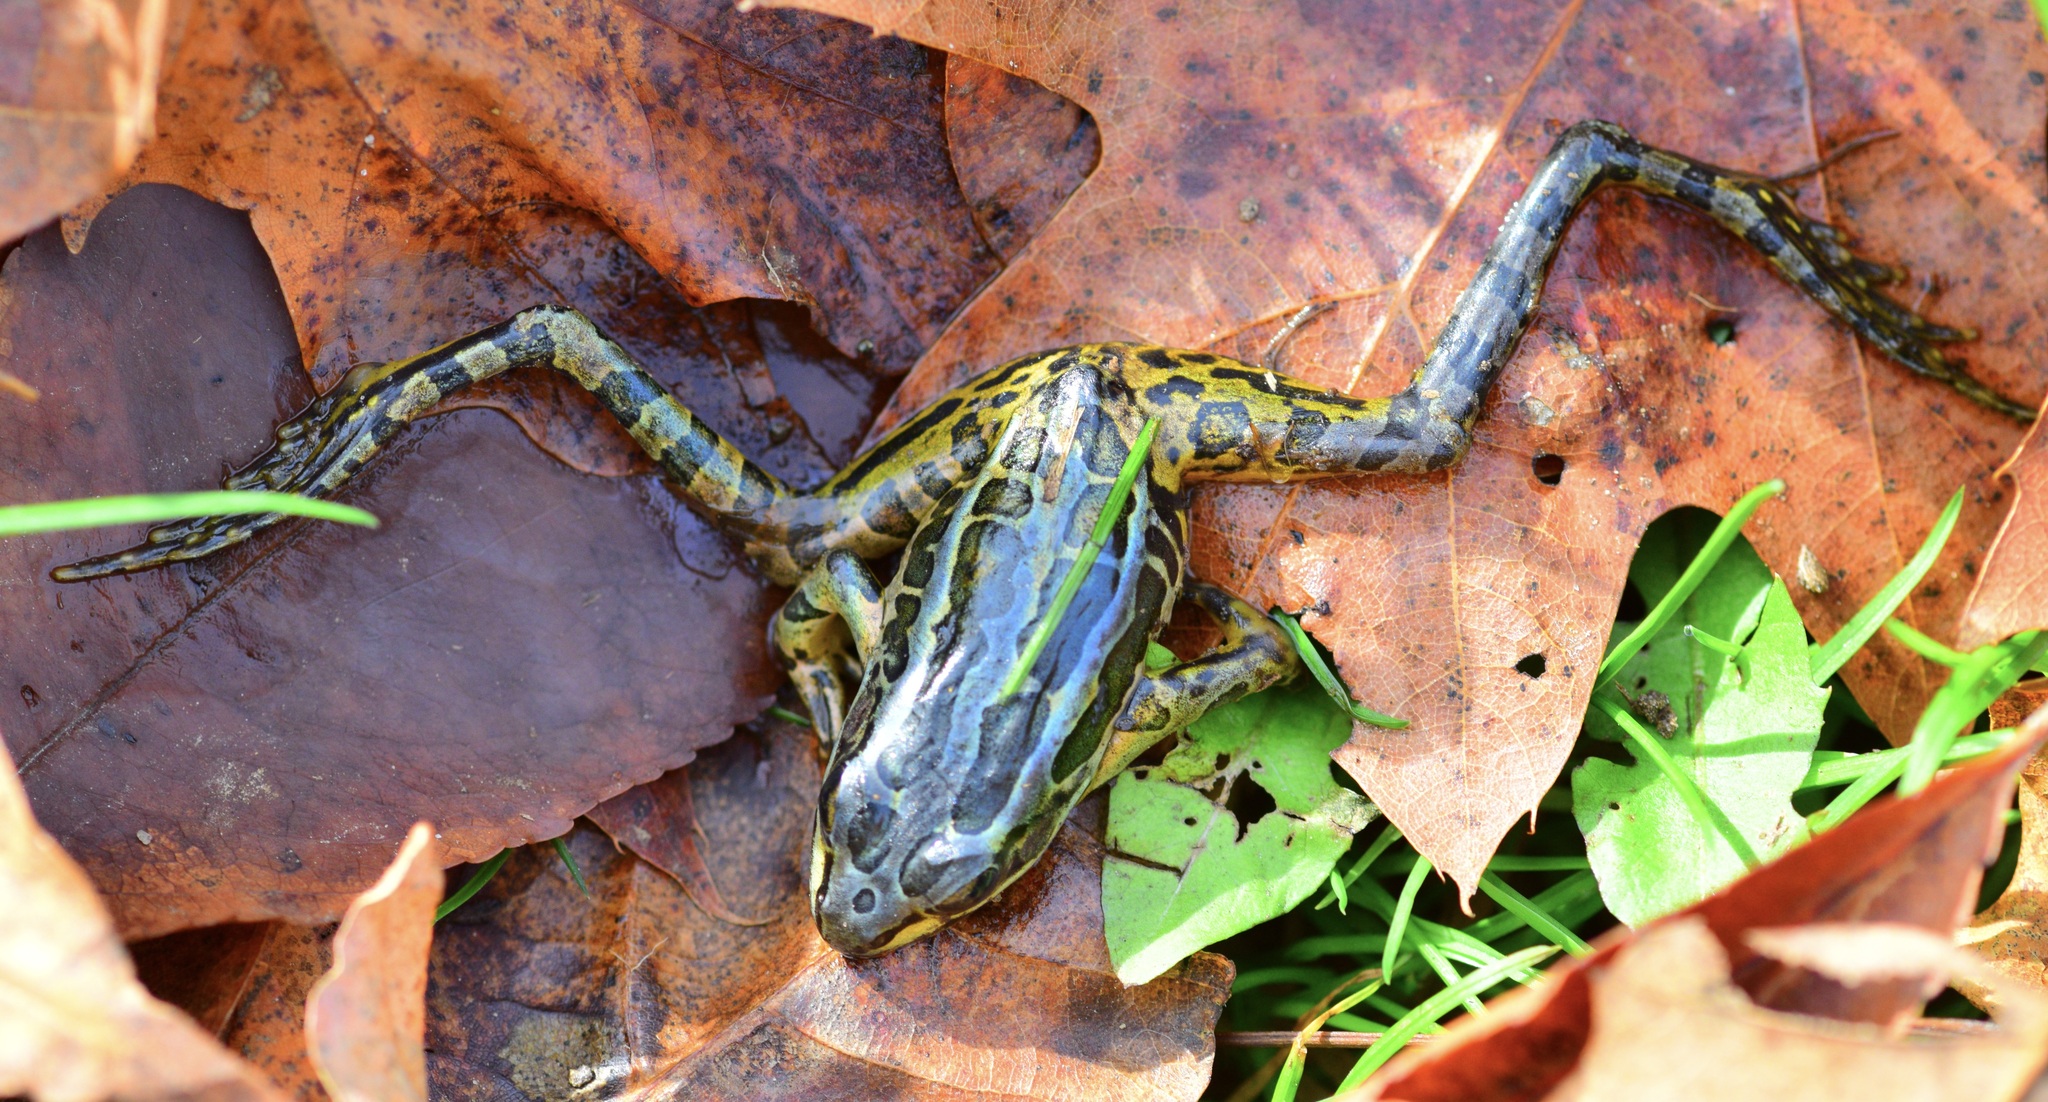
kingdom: Animalia
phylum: Chordata
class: Amphibia
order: Anura
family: Ranidae
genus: Lithobates
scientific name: Lithobates palustris
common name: Pickerel frog
